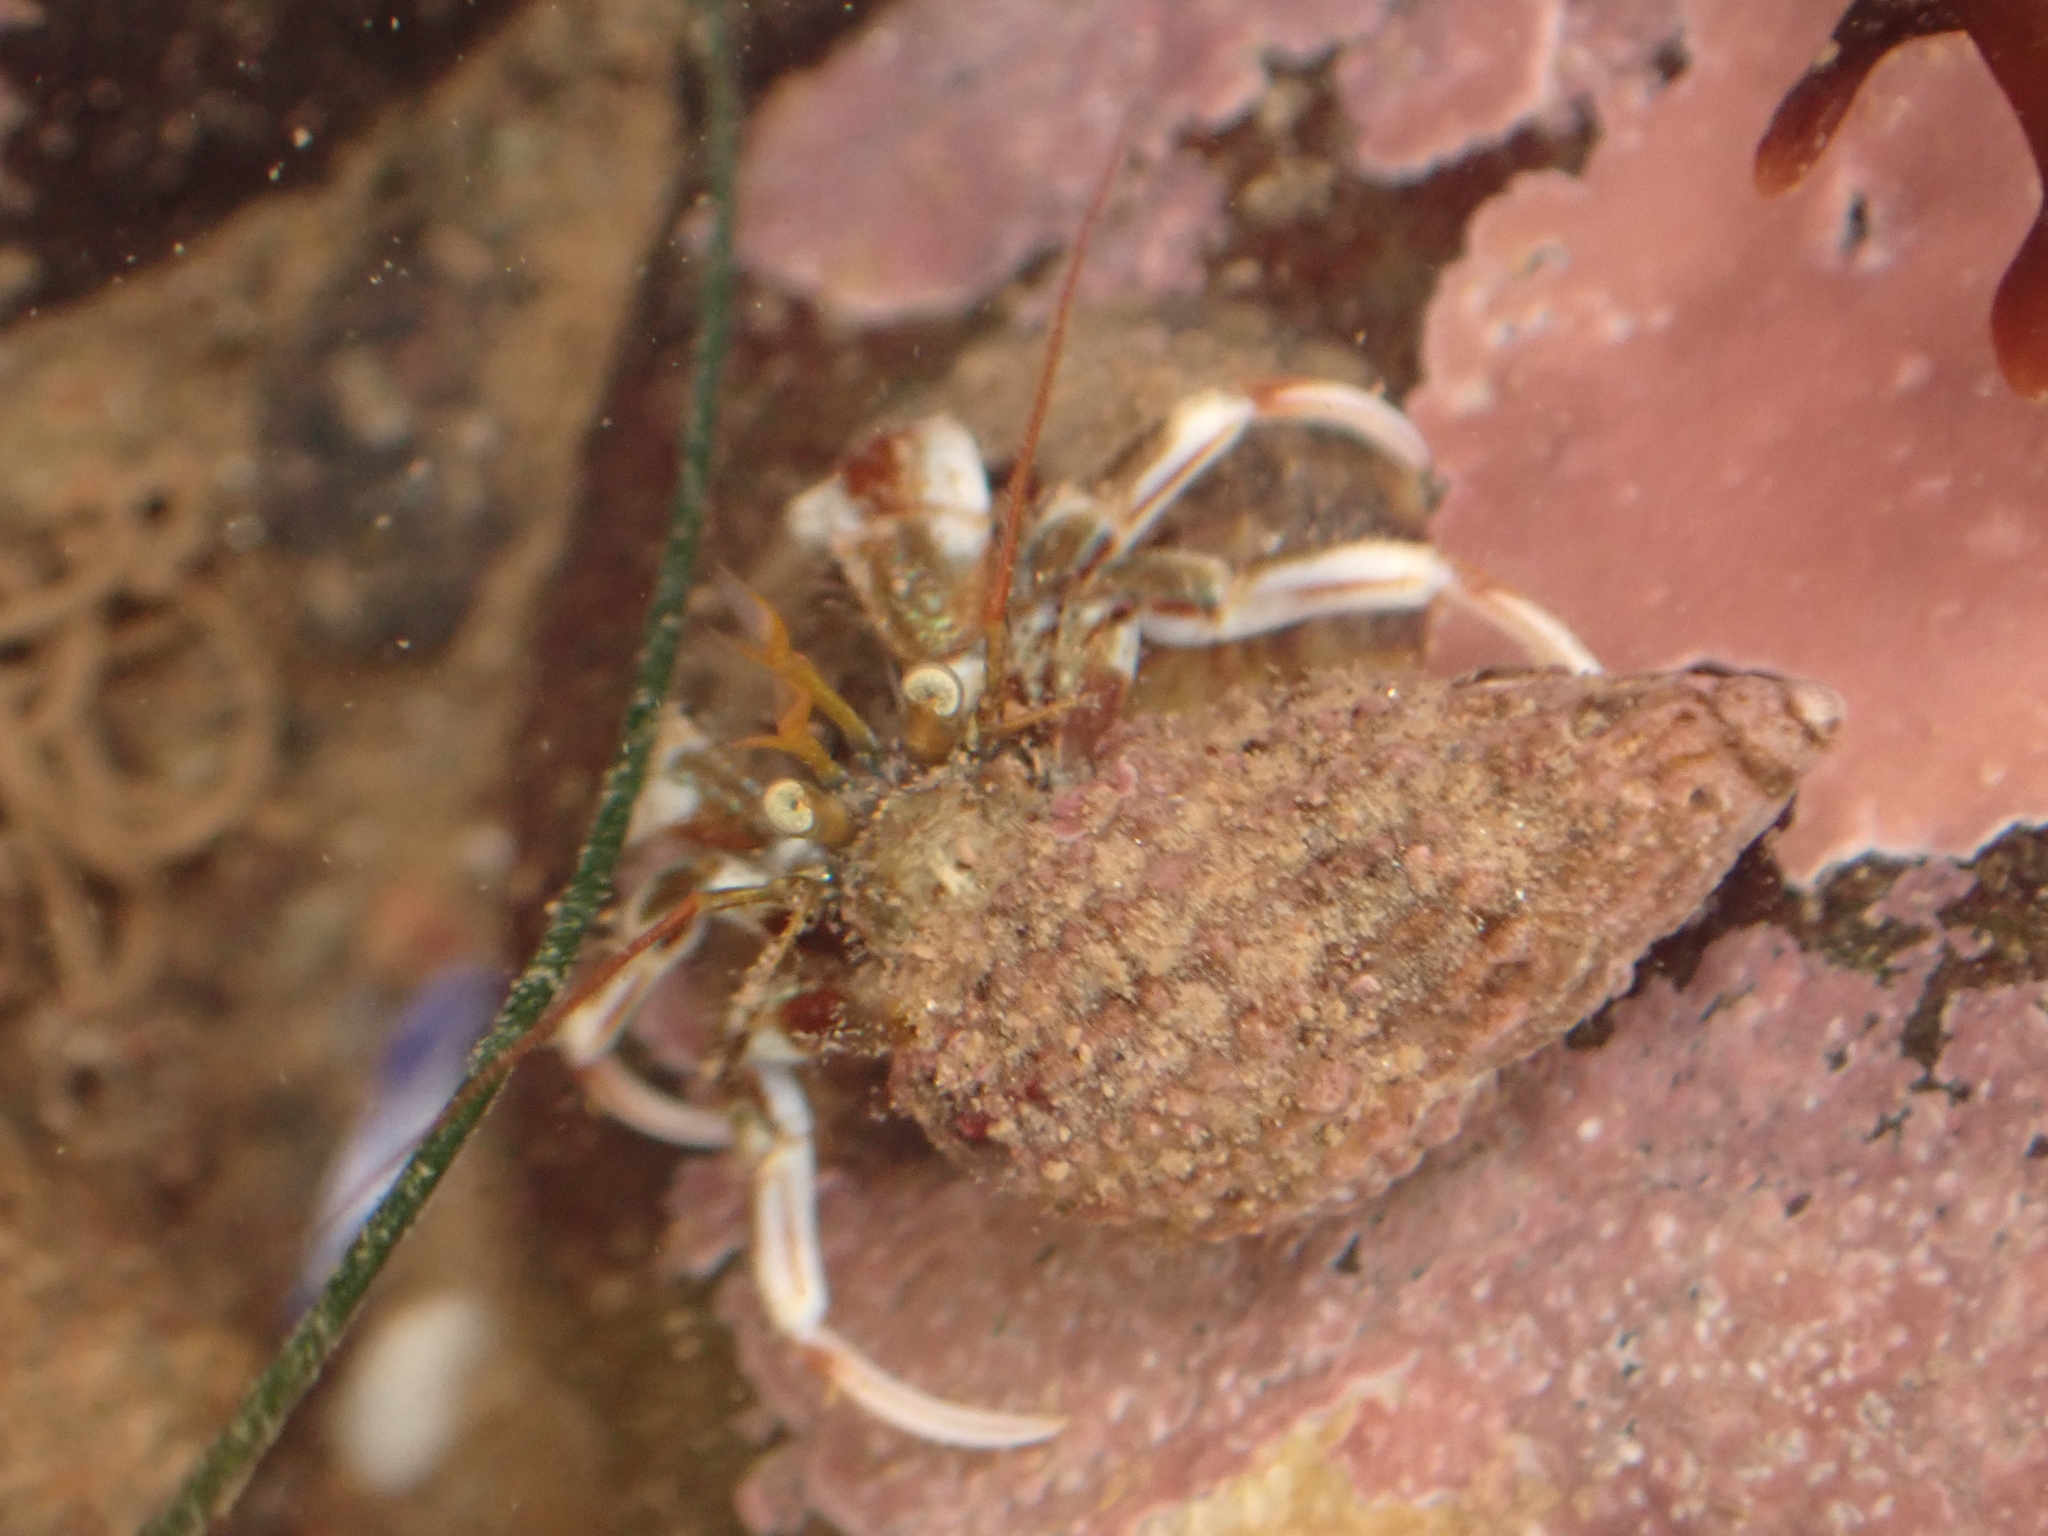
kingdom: Animalia
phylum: Arthropoda
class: Malacostraca
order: Decapoda
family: Paguridae
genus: Pagurus
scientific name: Pagurus acadianus
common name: Acadian hermit crab
